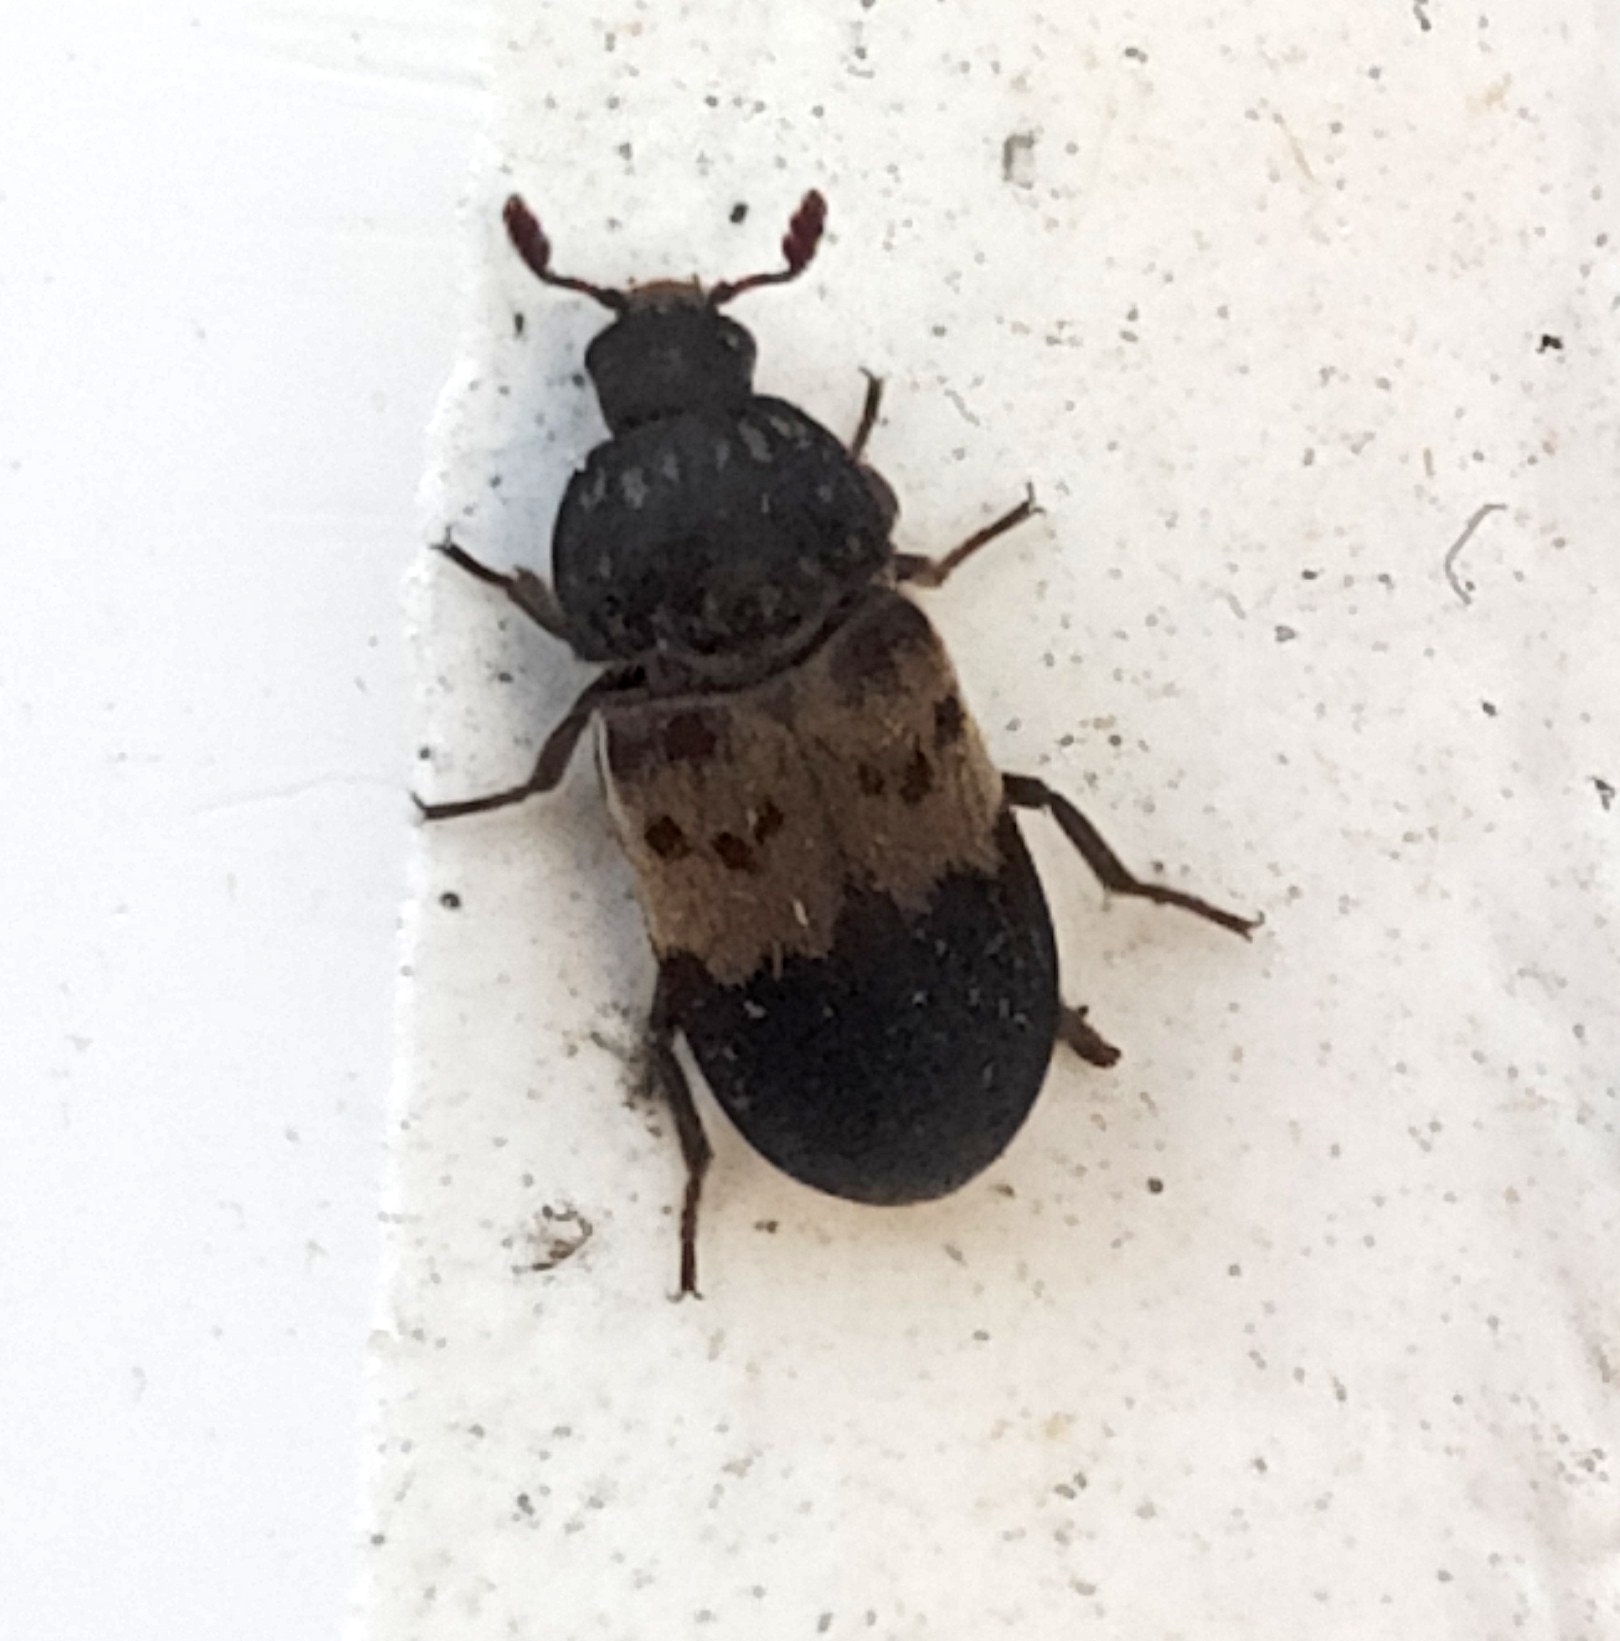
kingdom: Animalia
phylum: Arthropoda
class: Insecta
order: Coleoptera
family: Dermestidae
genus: Dermestes
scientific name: Dermestes lardarius
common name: Larder beetle
